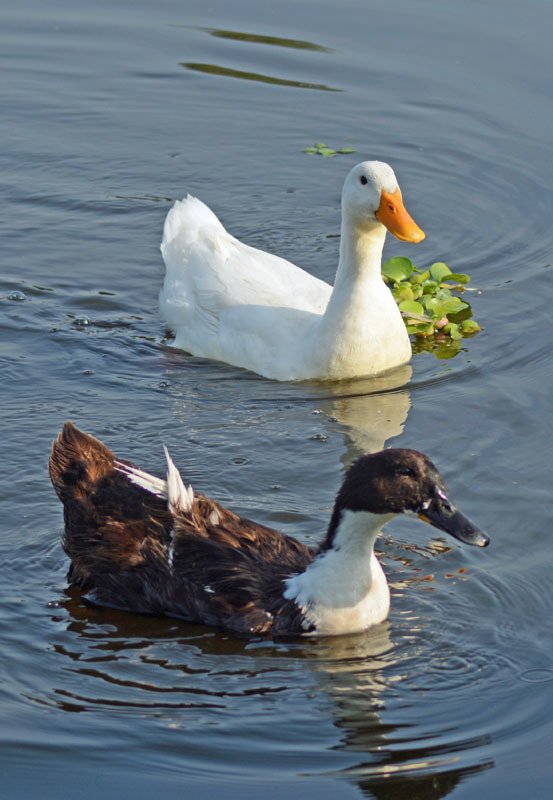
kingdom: Animalia
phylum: Chordata
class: Aves
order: Anseriformes
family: Anatidae
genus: Anas
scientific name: Anas platyrhynchos
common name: Mallard
